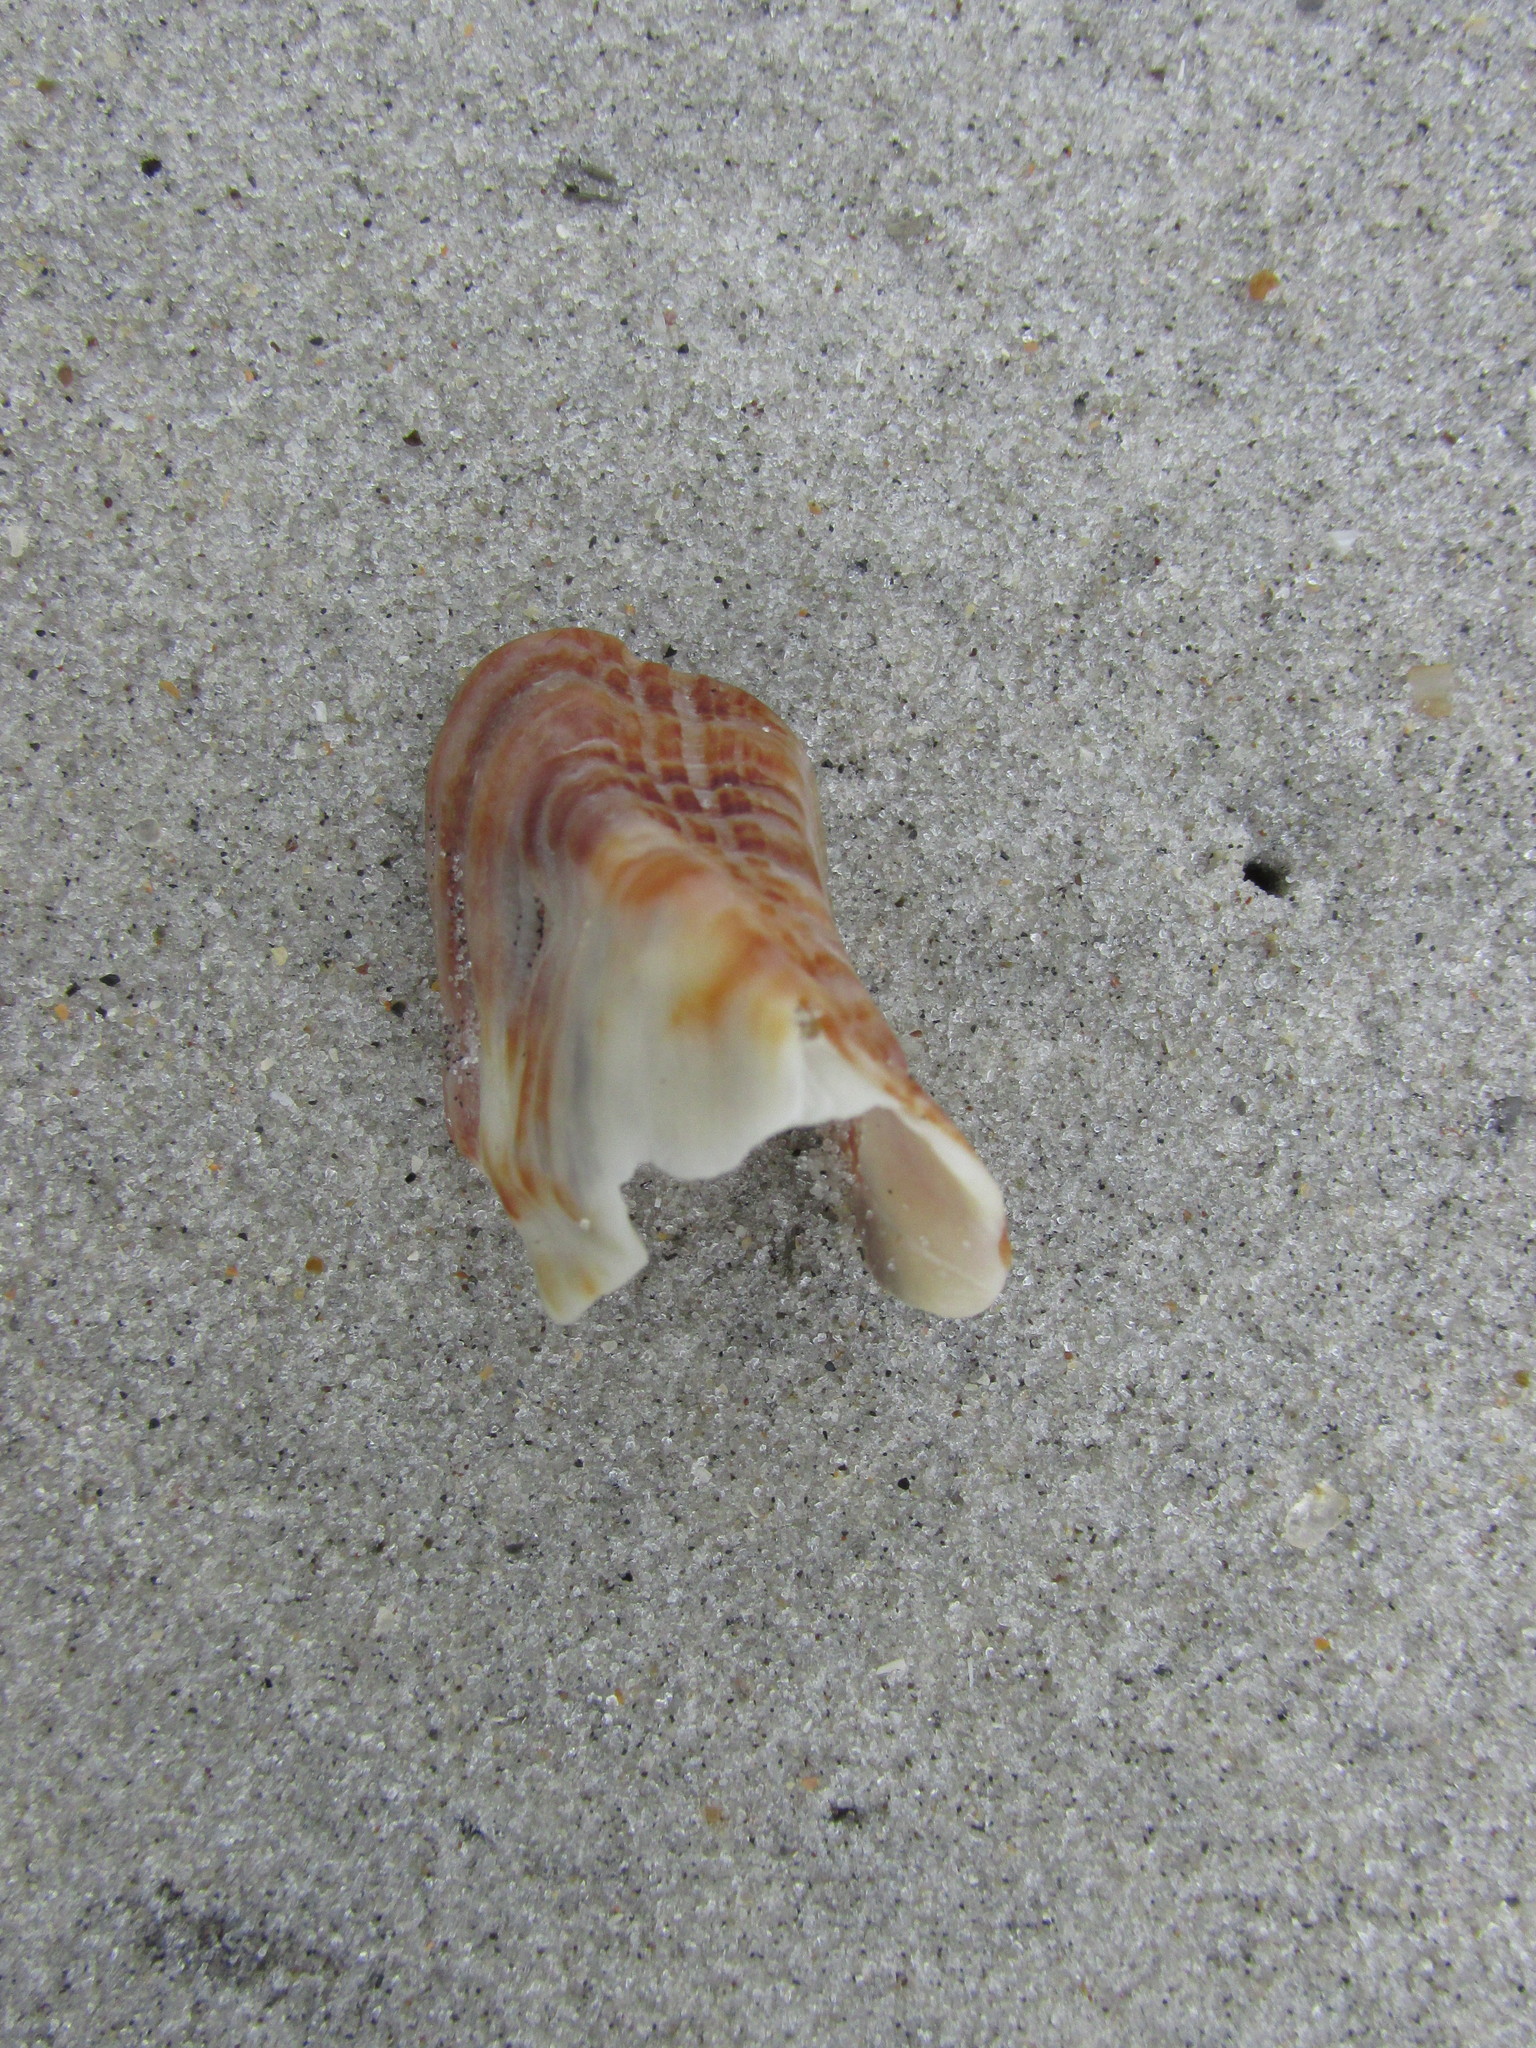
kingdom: Animalia
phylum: Mollusca
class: Bivalvia
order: Arcida
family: Arcidae
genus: Lamarcka
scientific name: Lamarcka imbricata
